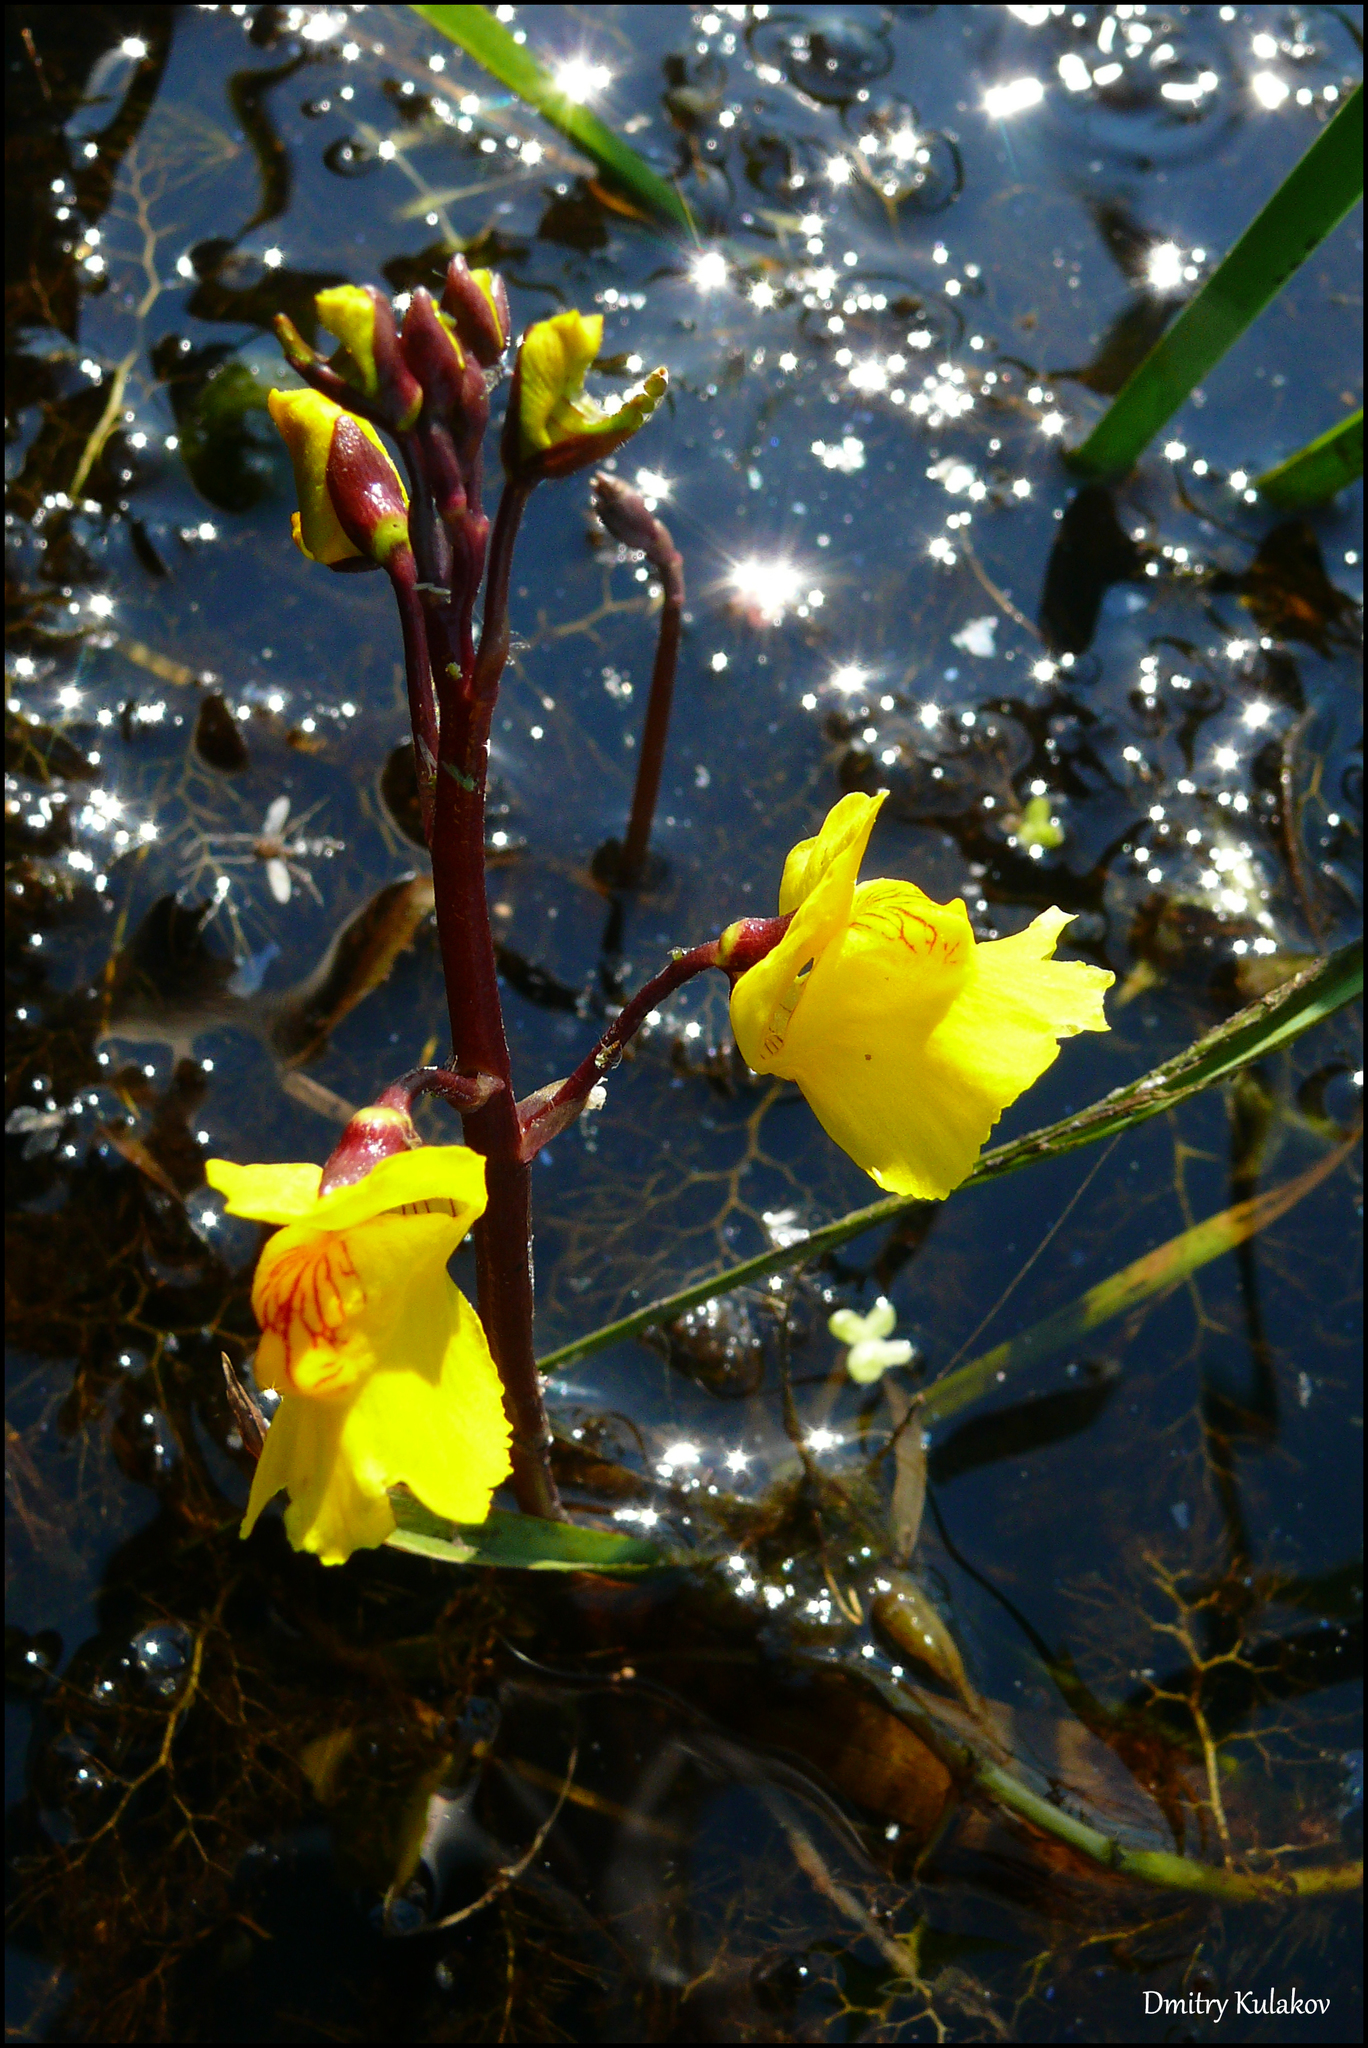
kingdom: Plantae
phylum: Tracheophyta
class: Magnoliopsida
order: Lamiales
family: Lentibulariaceae
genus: Utricularia
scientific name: Utricularia vulgaris
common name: Greater bladderwort
